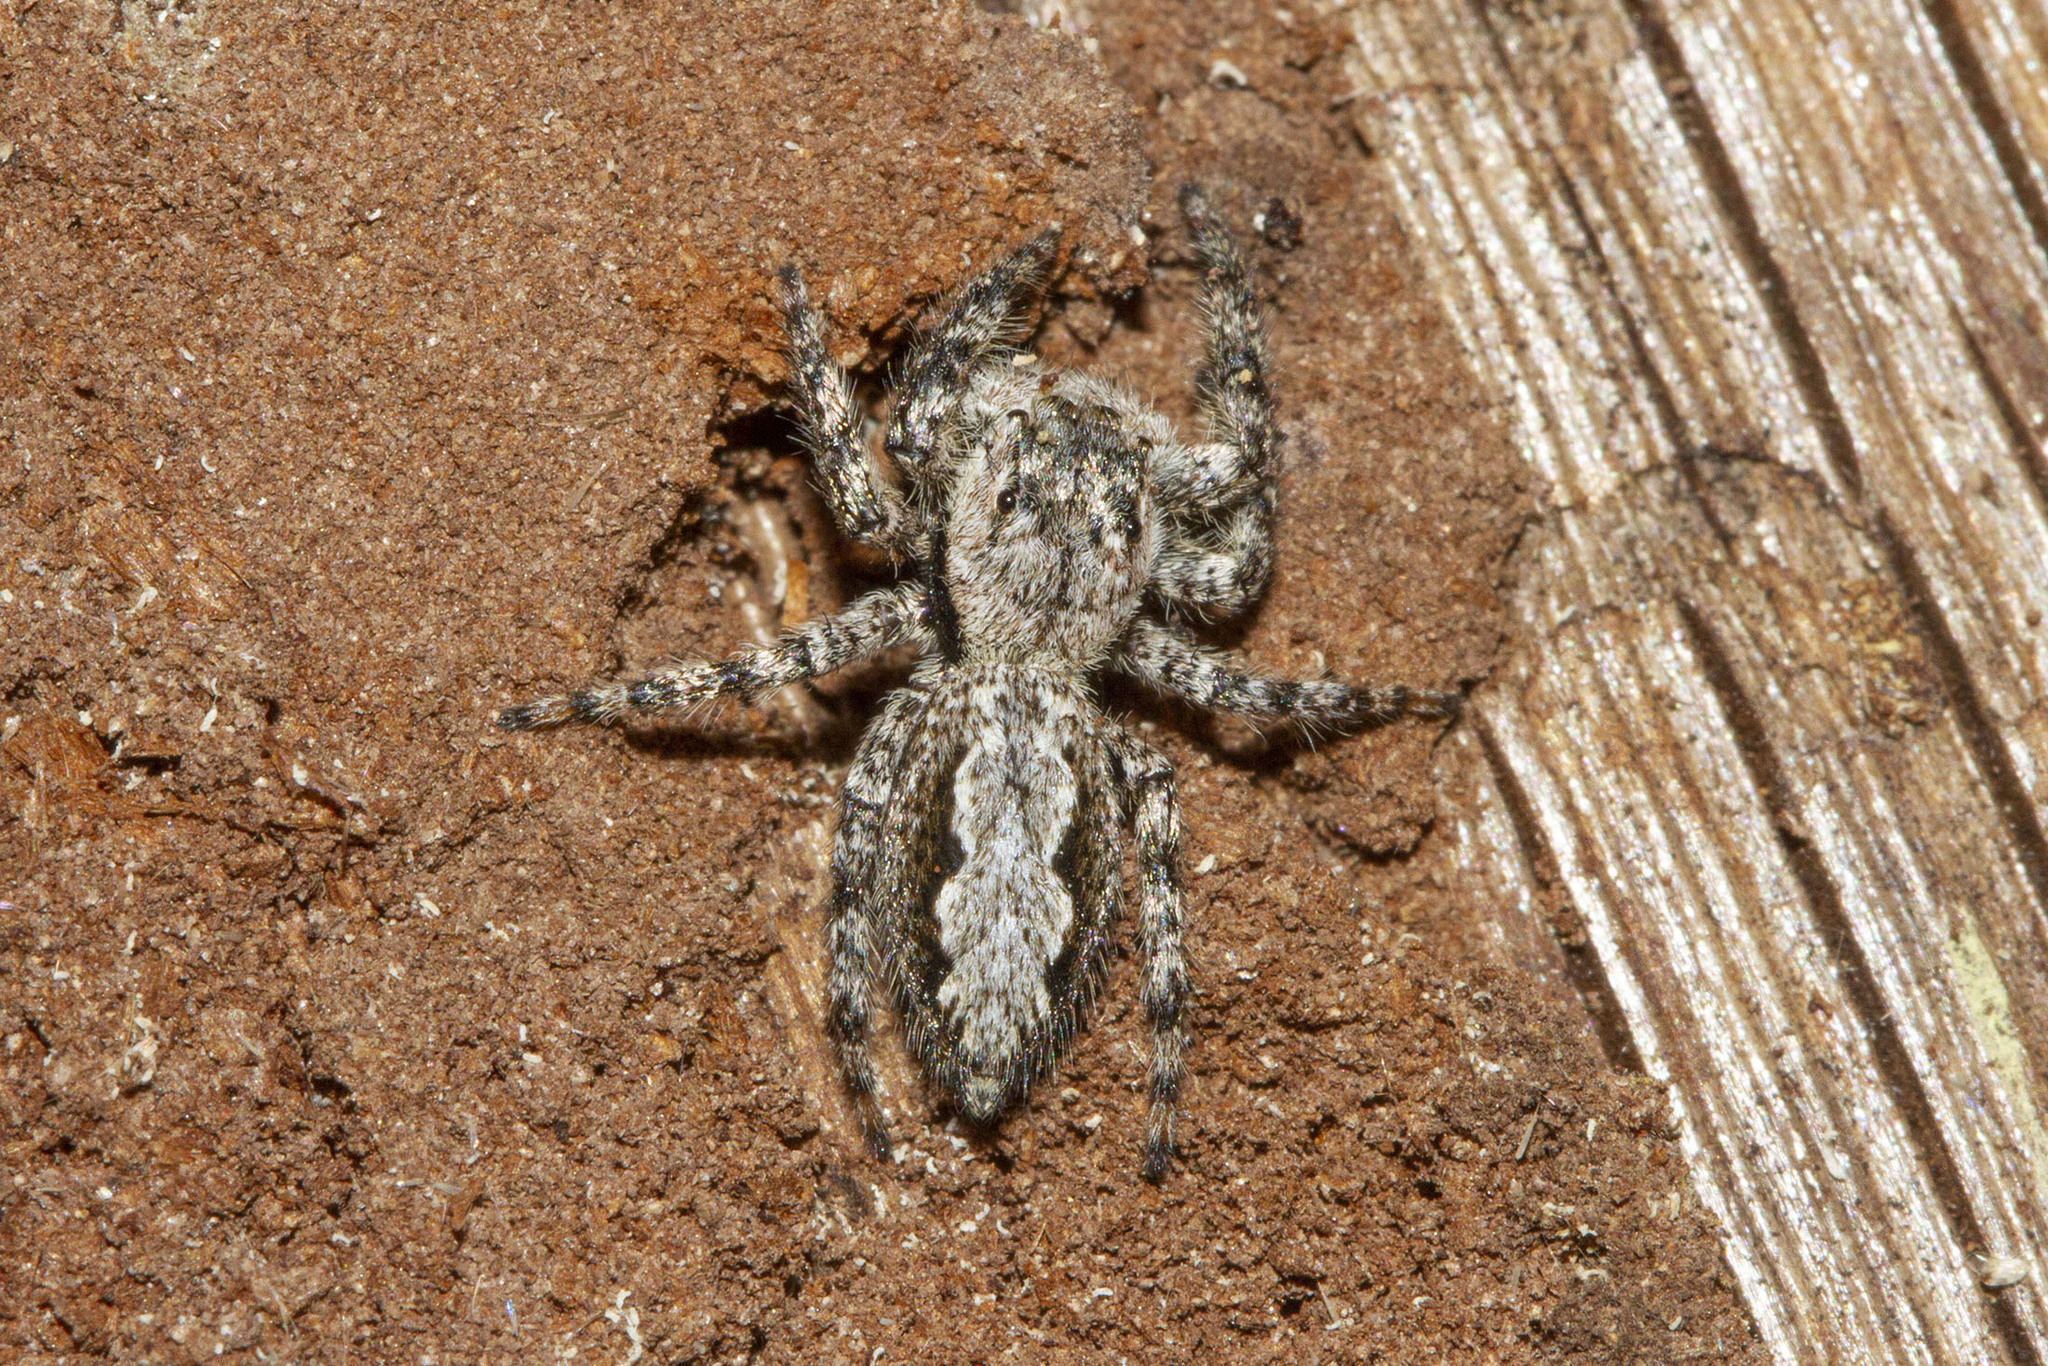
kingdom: Animalia
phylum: Arthropoda
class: Arachnida
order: Araneae
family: Salticidae
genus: Platycryptus
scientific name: Platycryptus undatus
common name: Tan jumping spider
